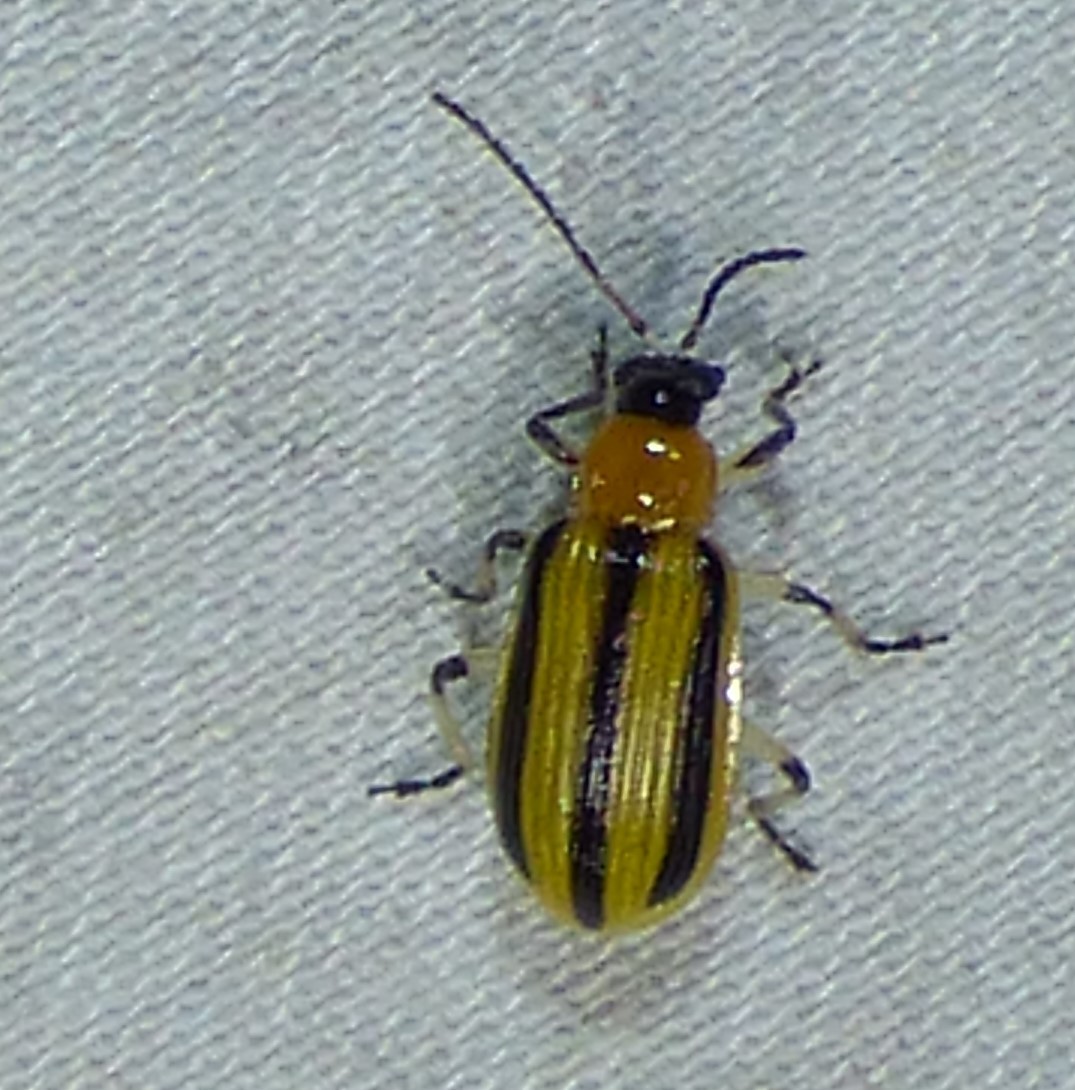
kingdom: Animalia
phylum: Arthropoda
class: Insecta
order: Coleoptera
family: Chrysomelidae
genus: Acalymma
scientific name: Acalymma vittatum
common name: Striped cucumber beetle
